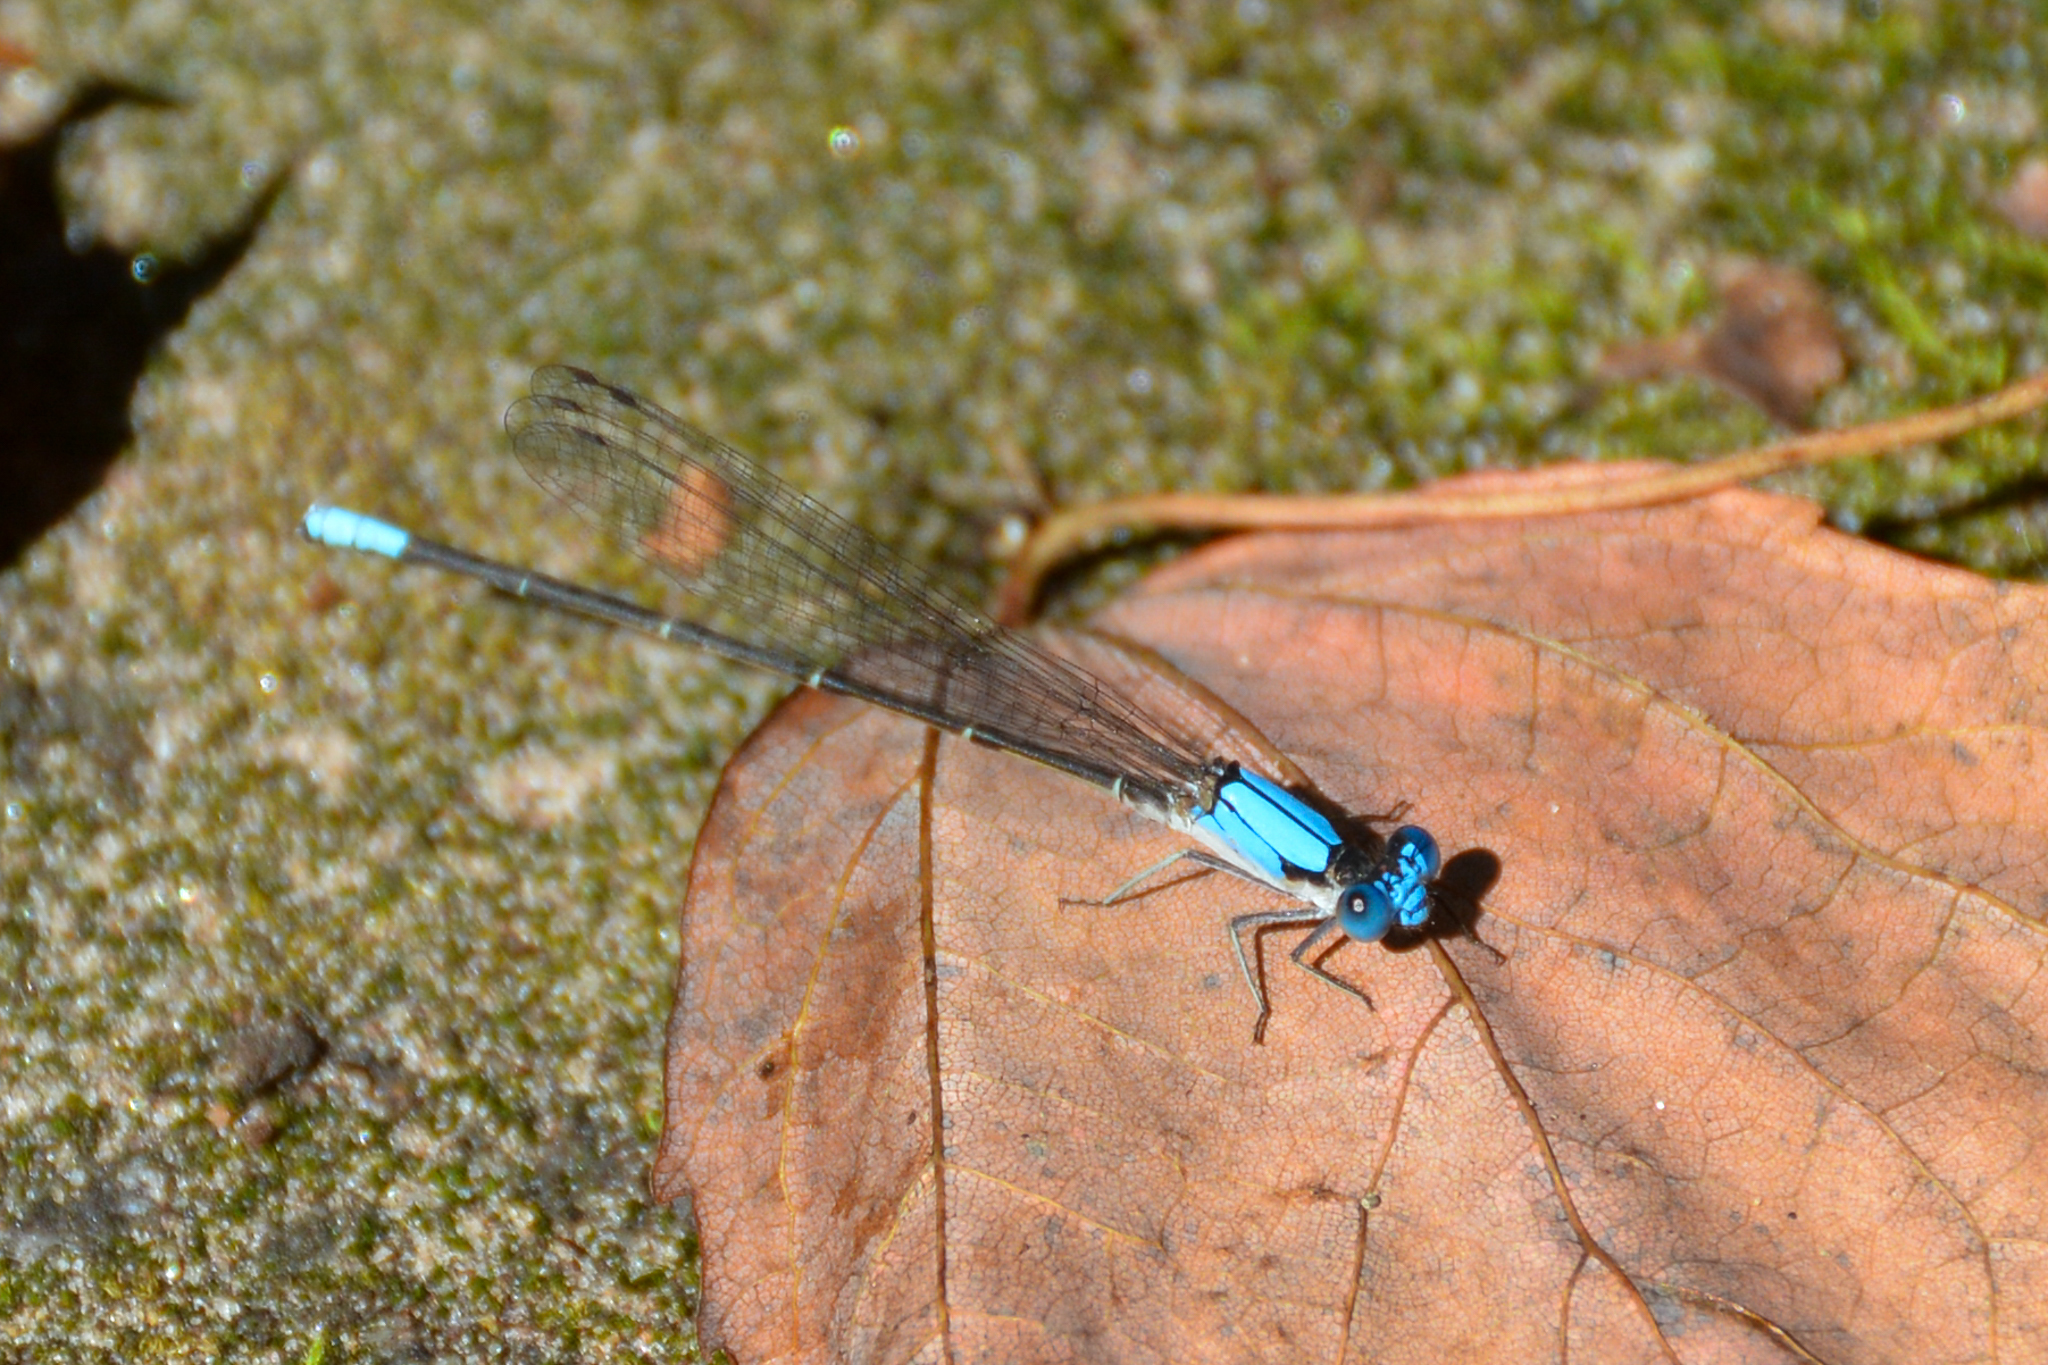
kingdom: Animalia
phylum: Arthropoda
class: Insecta
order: Odonata
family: Coenagrionidae
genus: Argia
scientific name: Argia apicalis
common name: Blue-fronted dancer
